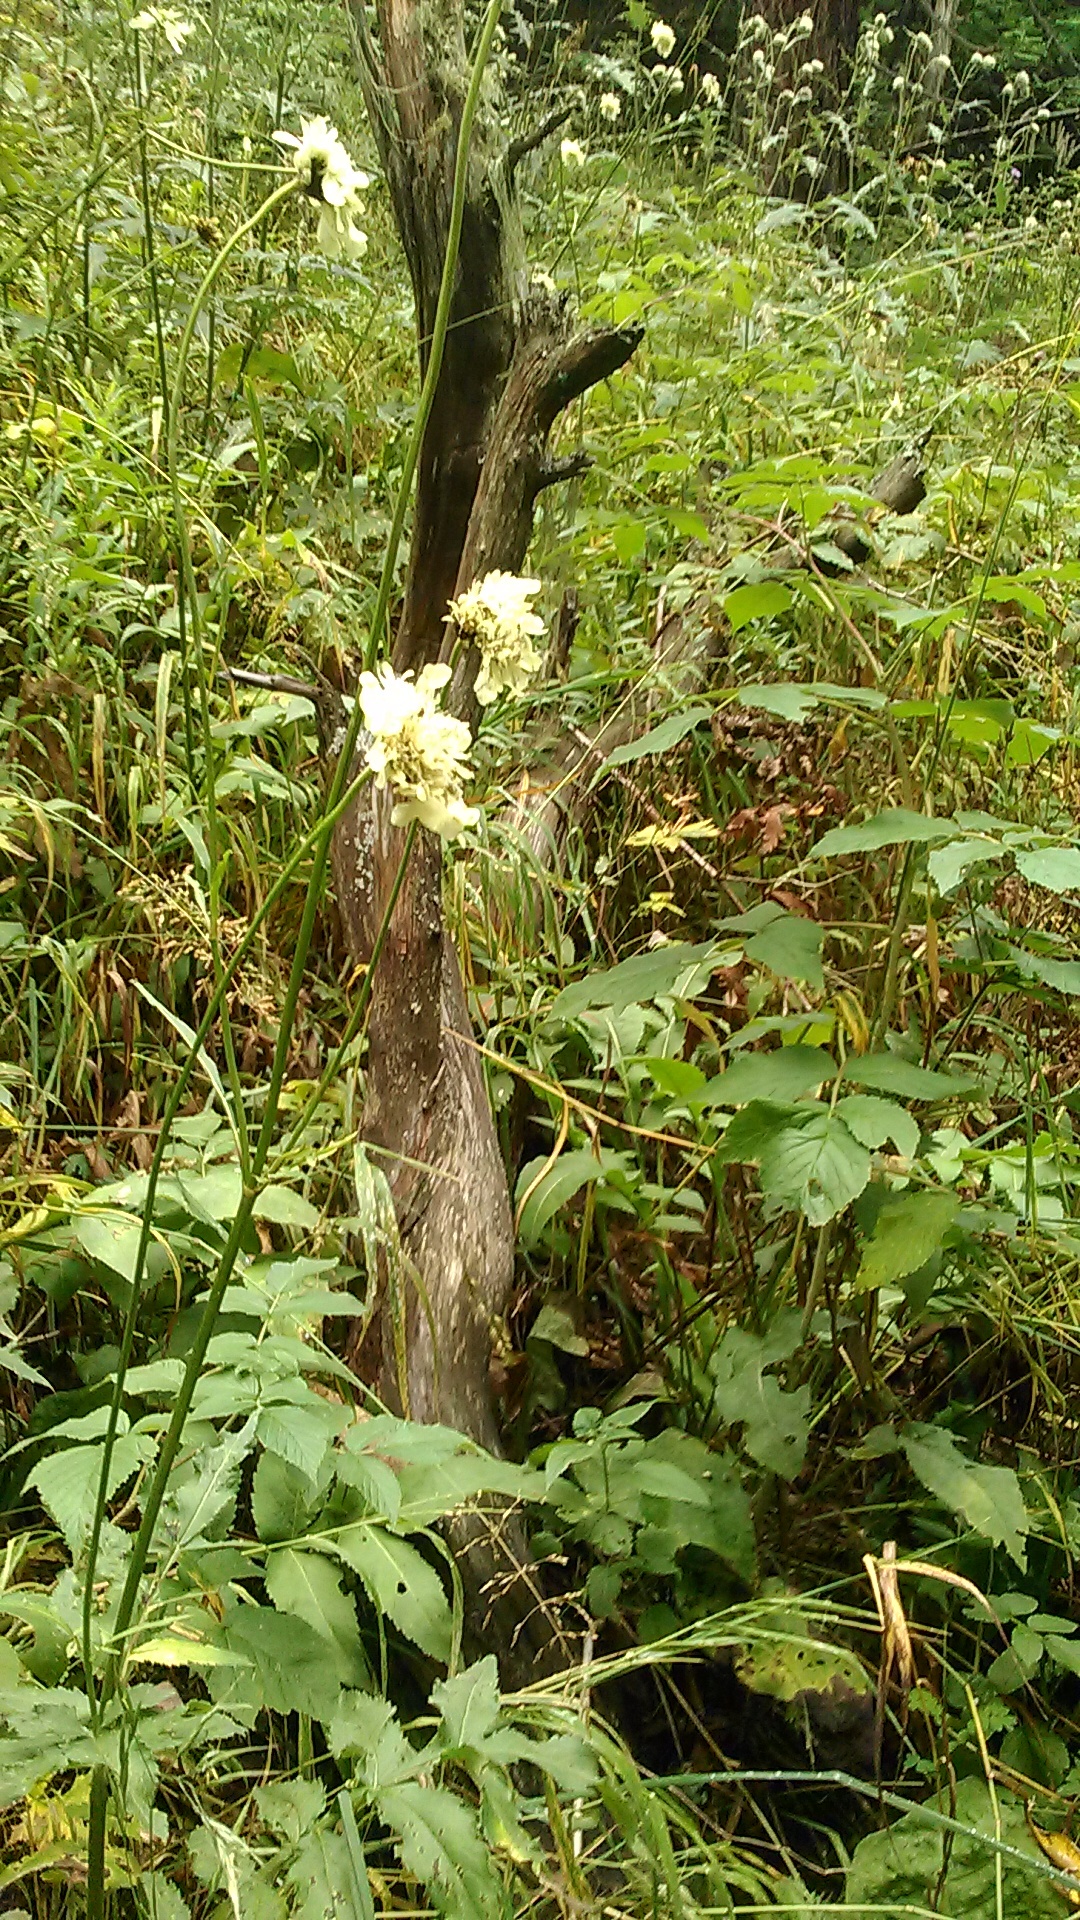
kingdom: Plantae
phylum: Tracheophyta
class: Magnoliopsida
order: Dipsacales
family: Caprifoliaceae
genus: Cephalaria
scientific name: Cephalaria gigantea
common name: Tatarian cephalaria
